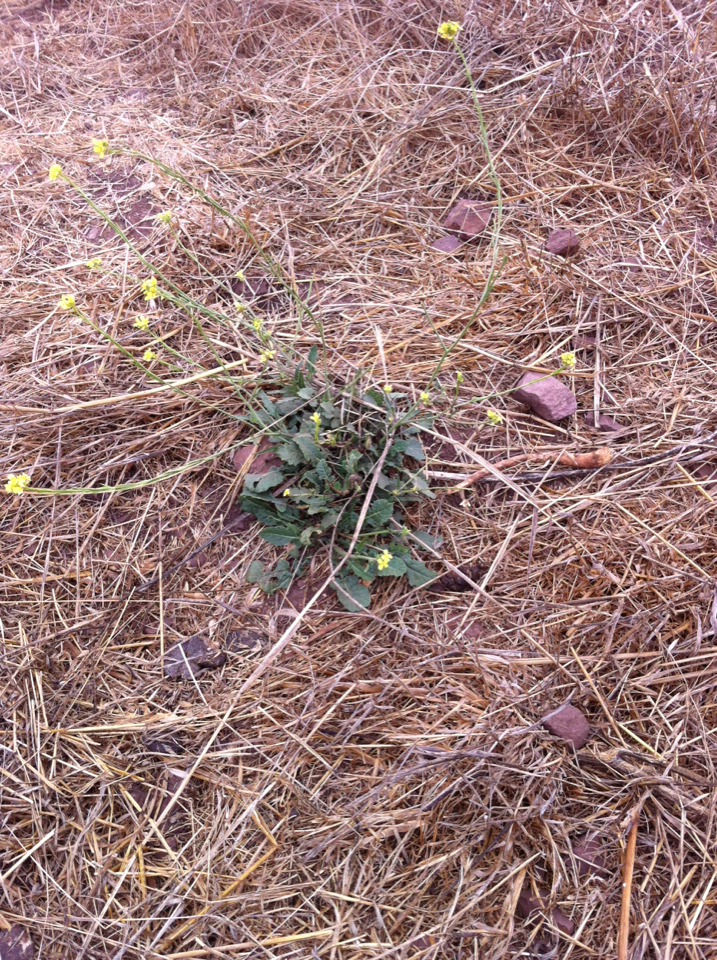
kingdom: Plantae
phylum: Tracheophyta
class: Magnoliopsida
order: Brassicales
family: Brassicaceae
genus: Hirschfeldia
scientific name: Hirschfeldia incana
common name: Hoary mustard
